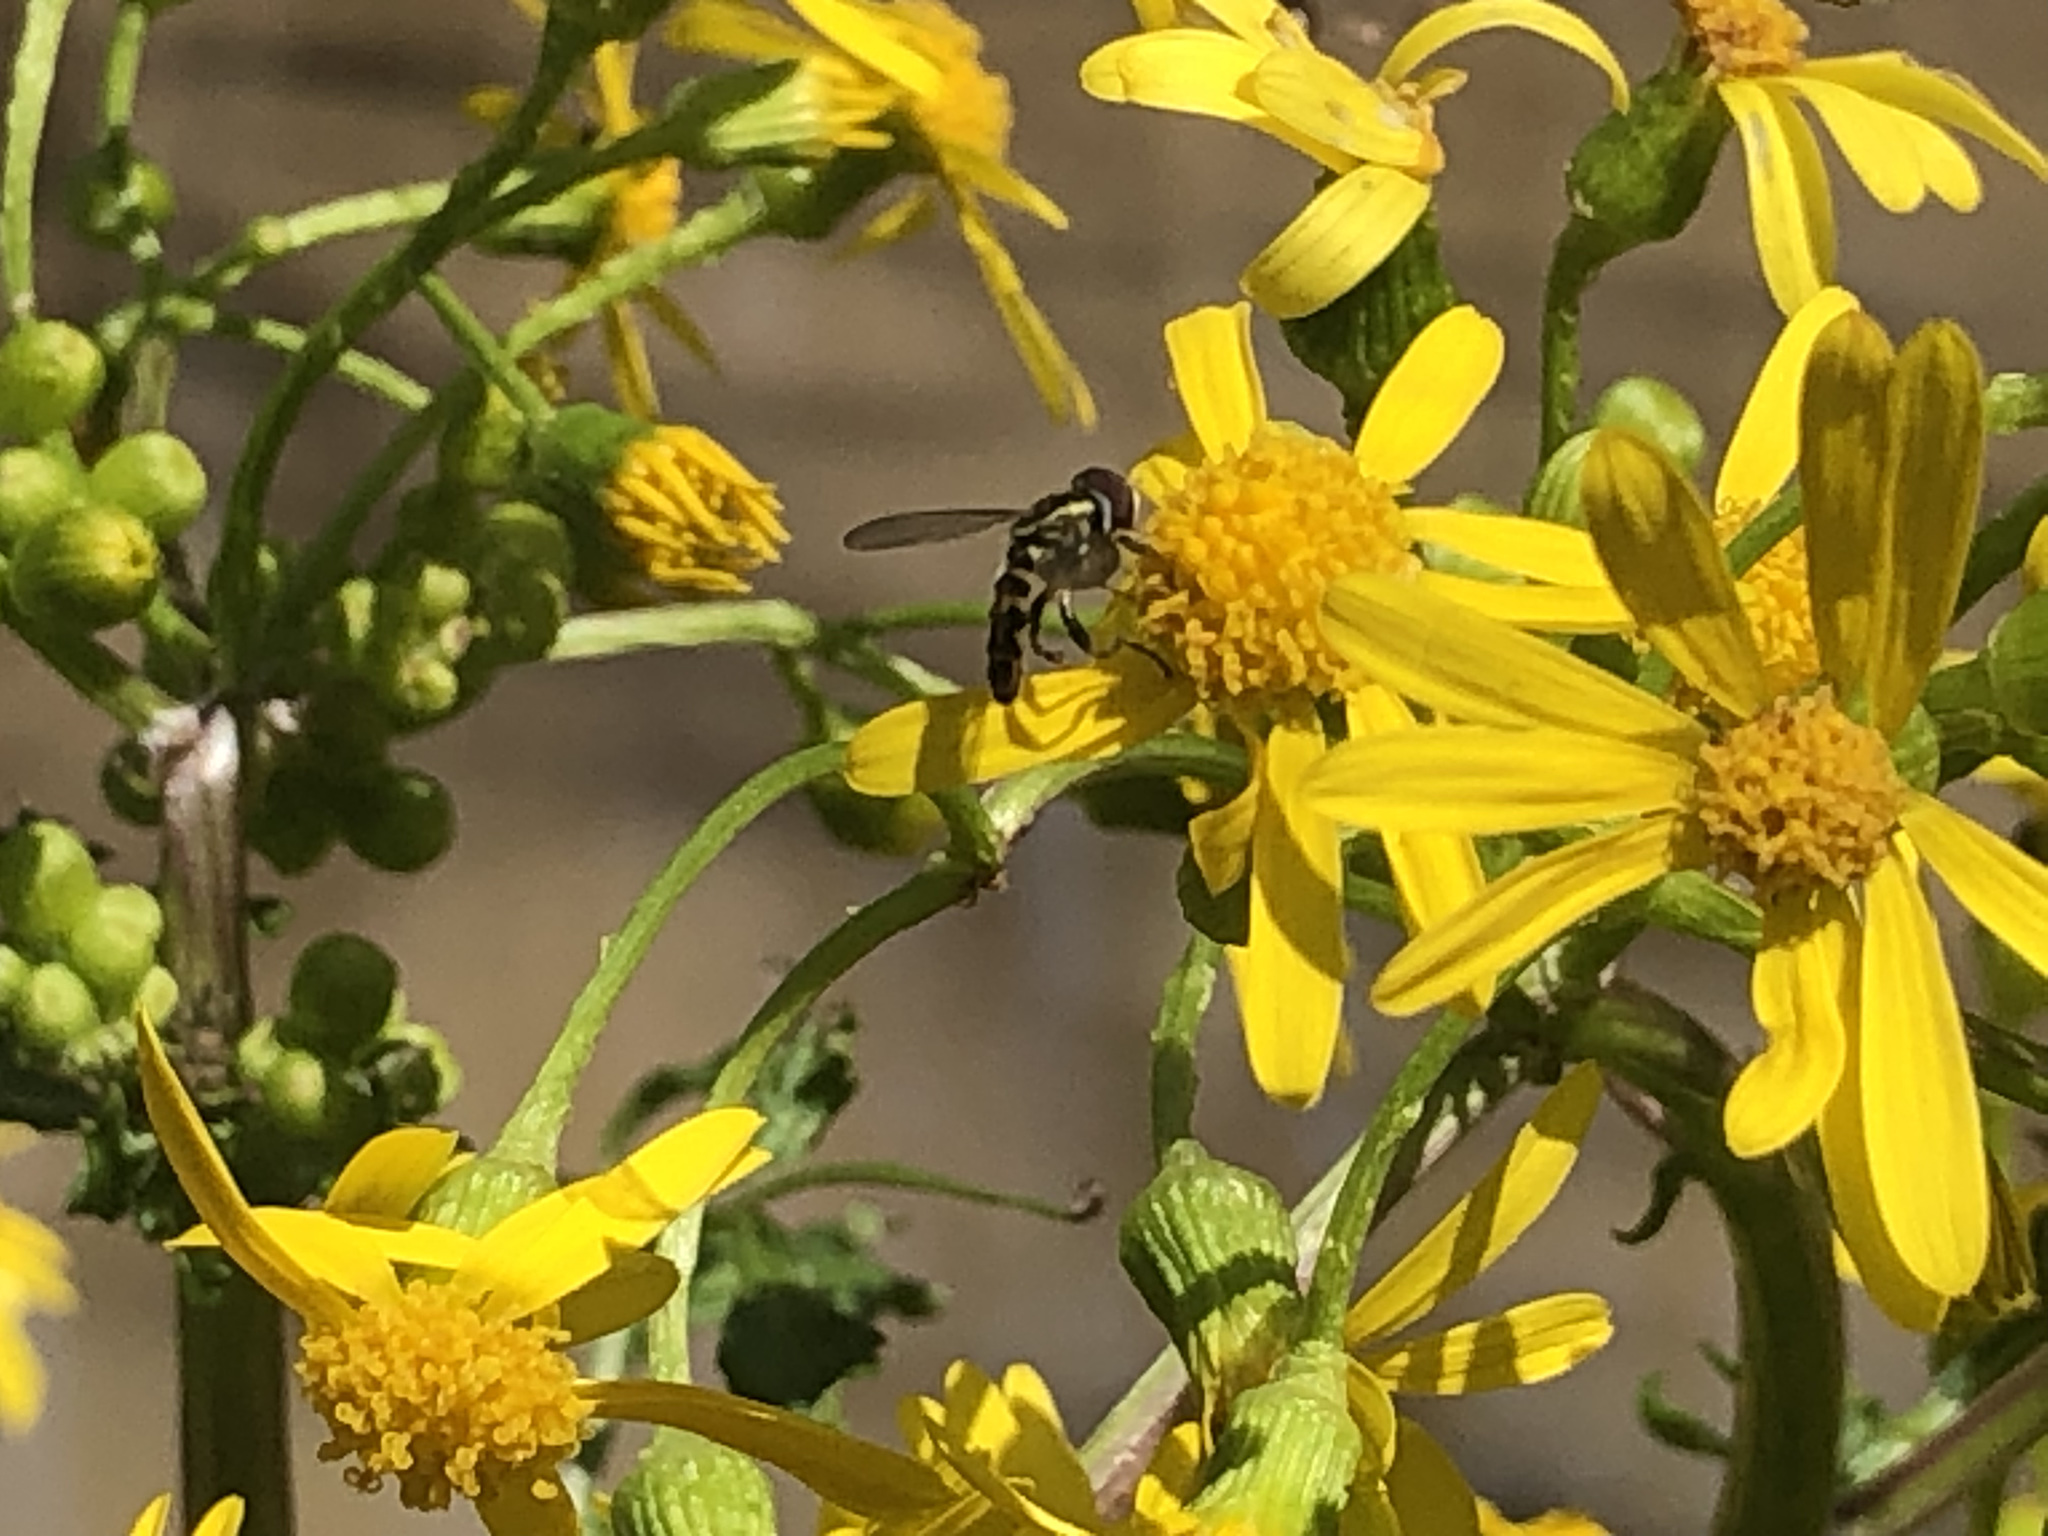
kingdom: Animalia
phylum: Arthropoda
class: Insecta
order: Diptera
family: Syrphidae
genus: Toxomerus
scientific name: Toxomerus geminatus
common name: Eastern calligrapher
